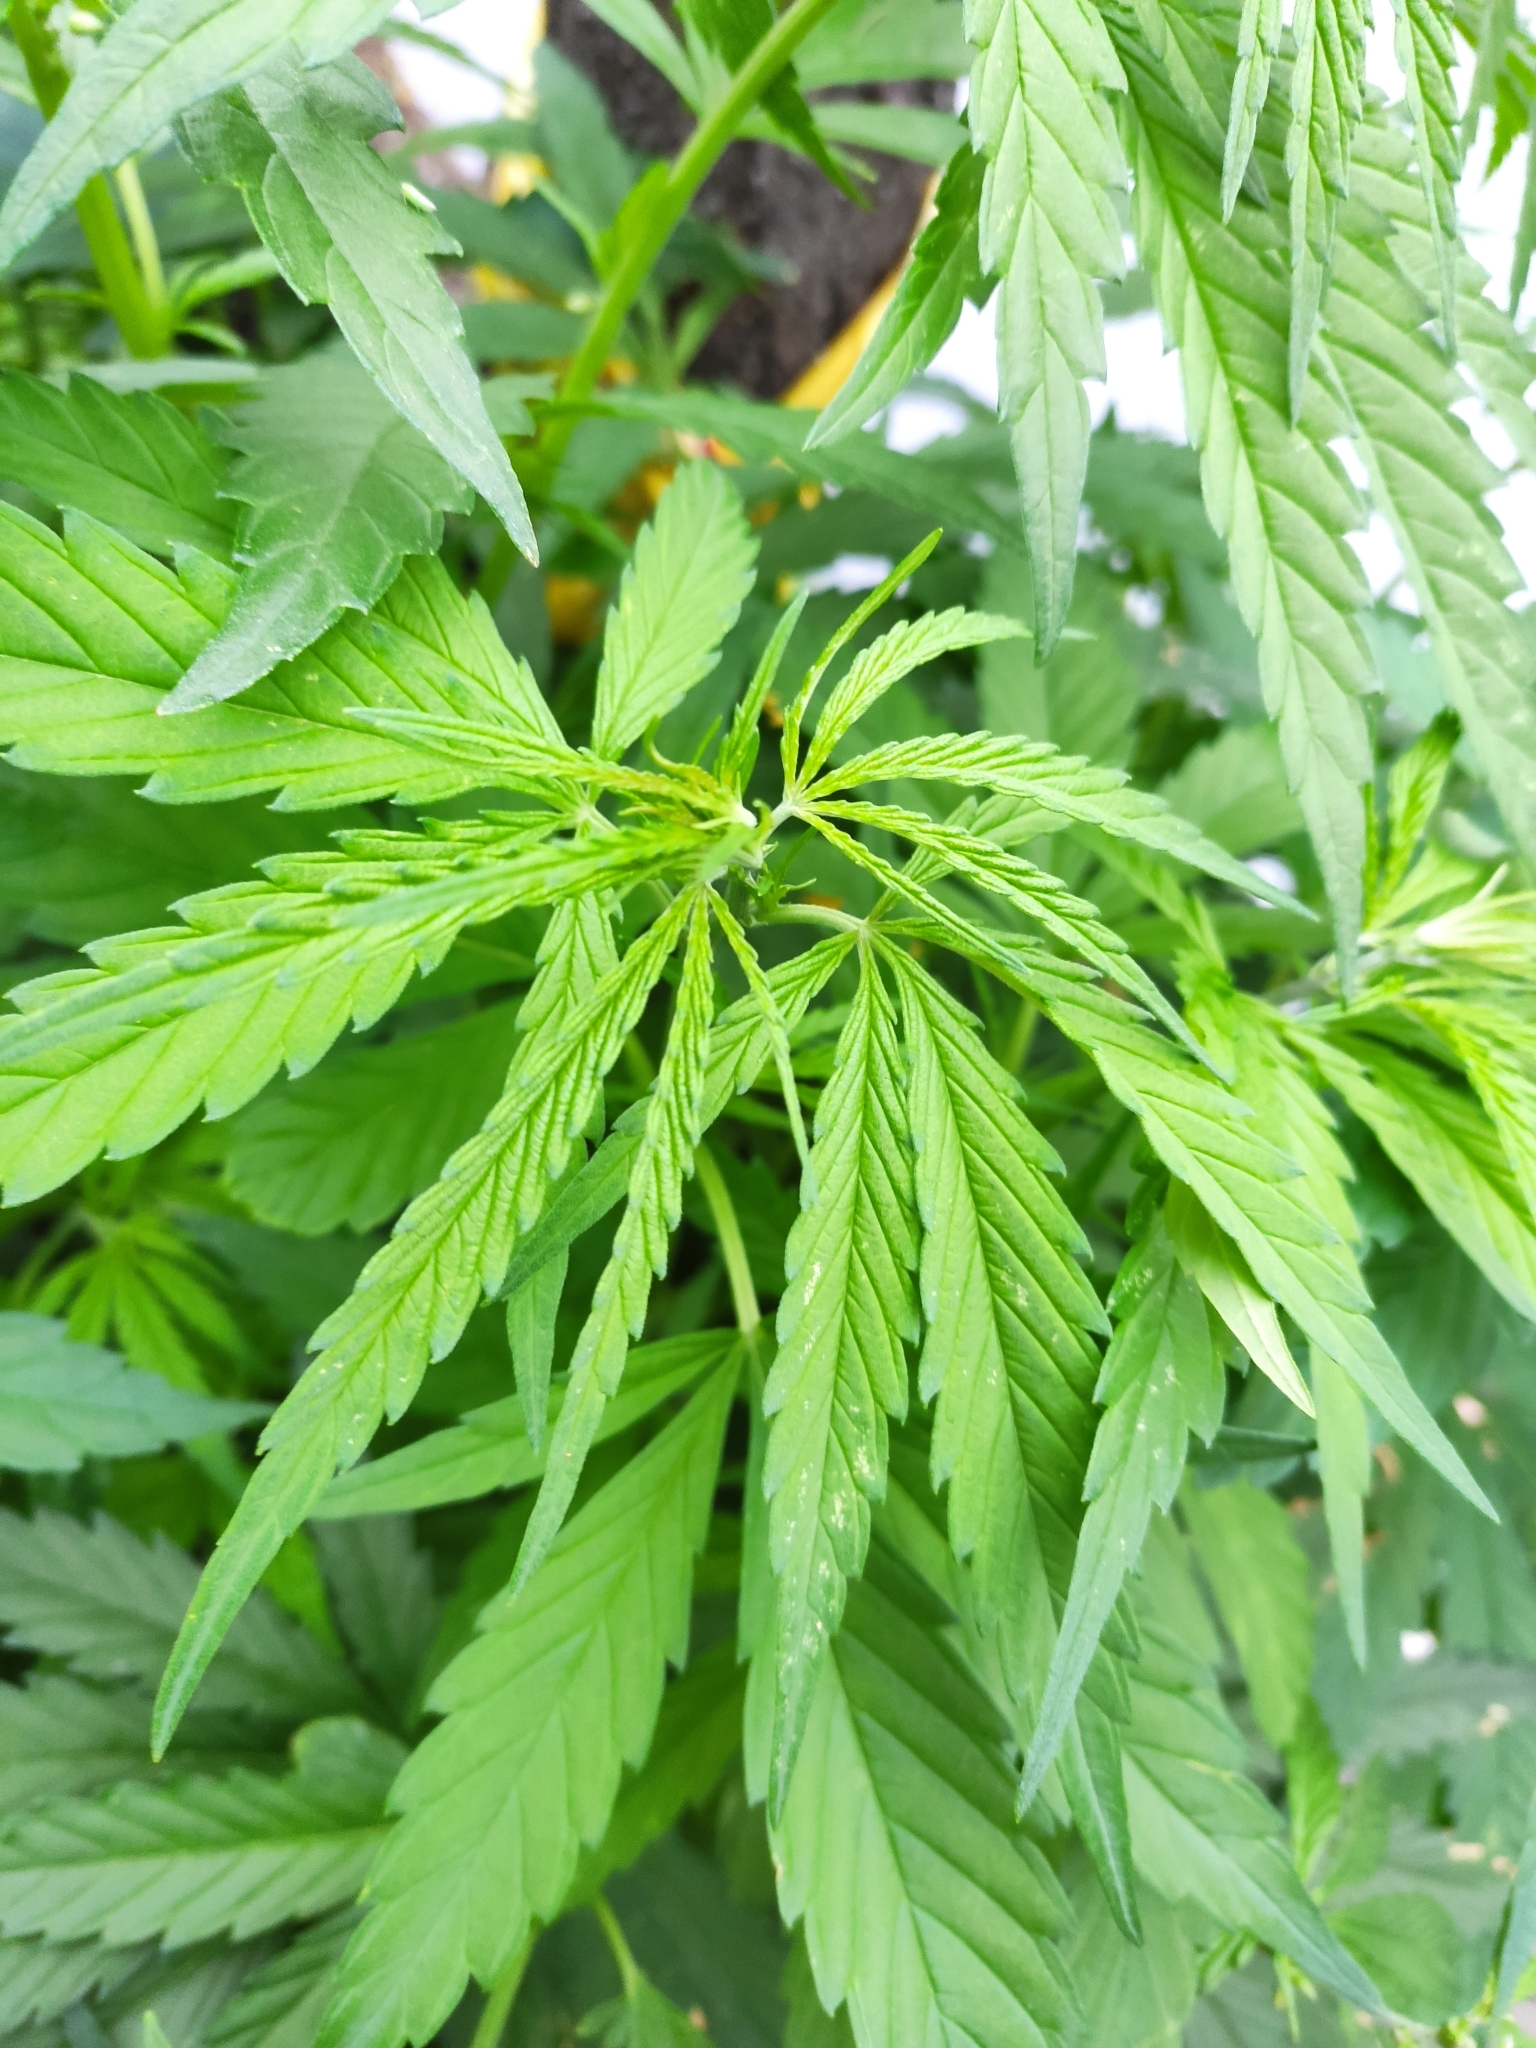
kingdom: Plantae
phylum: Tracheophyta
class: Magnoliopsida
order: Rosales
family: Cannabaceae
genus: Cannabis
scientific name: Cannabis sativa
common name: Hemp
